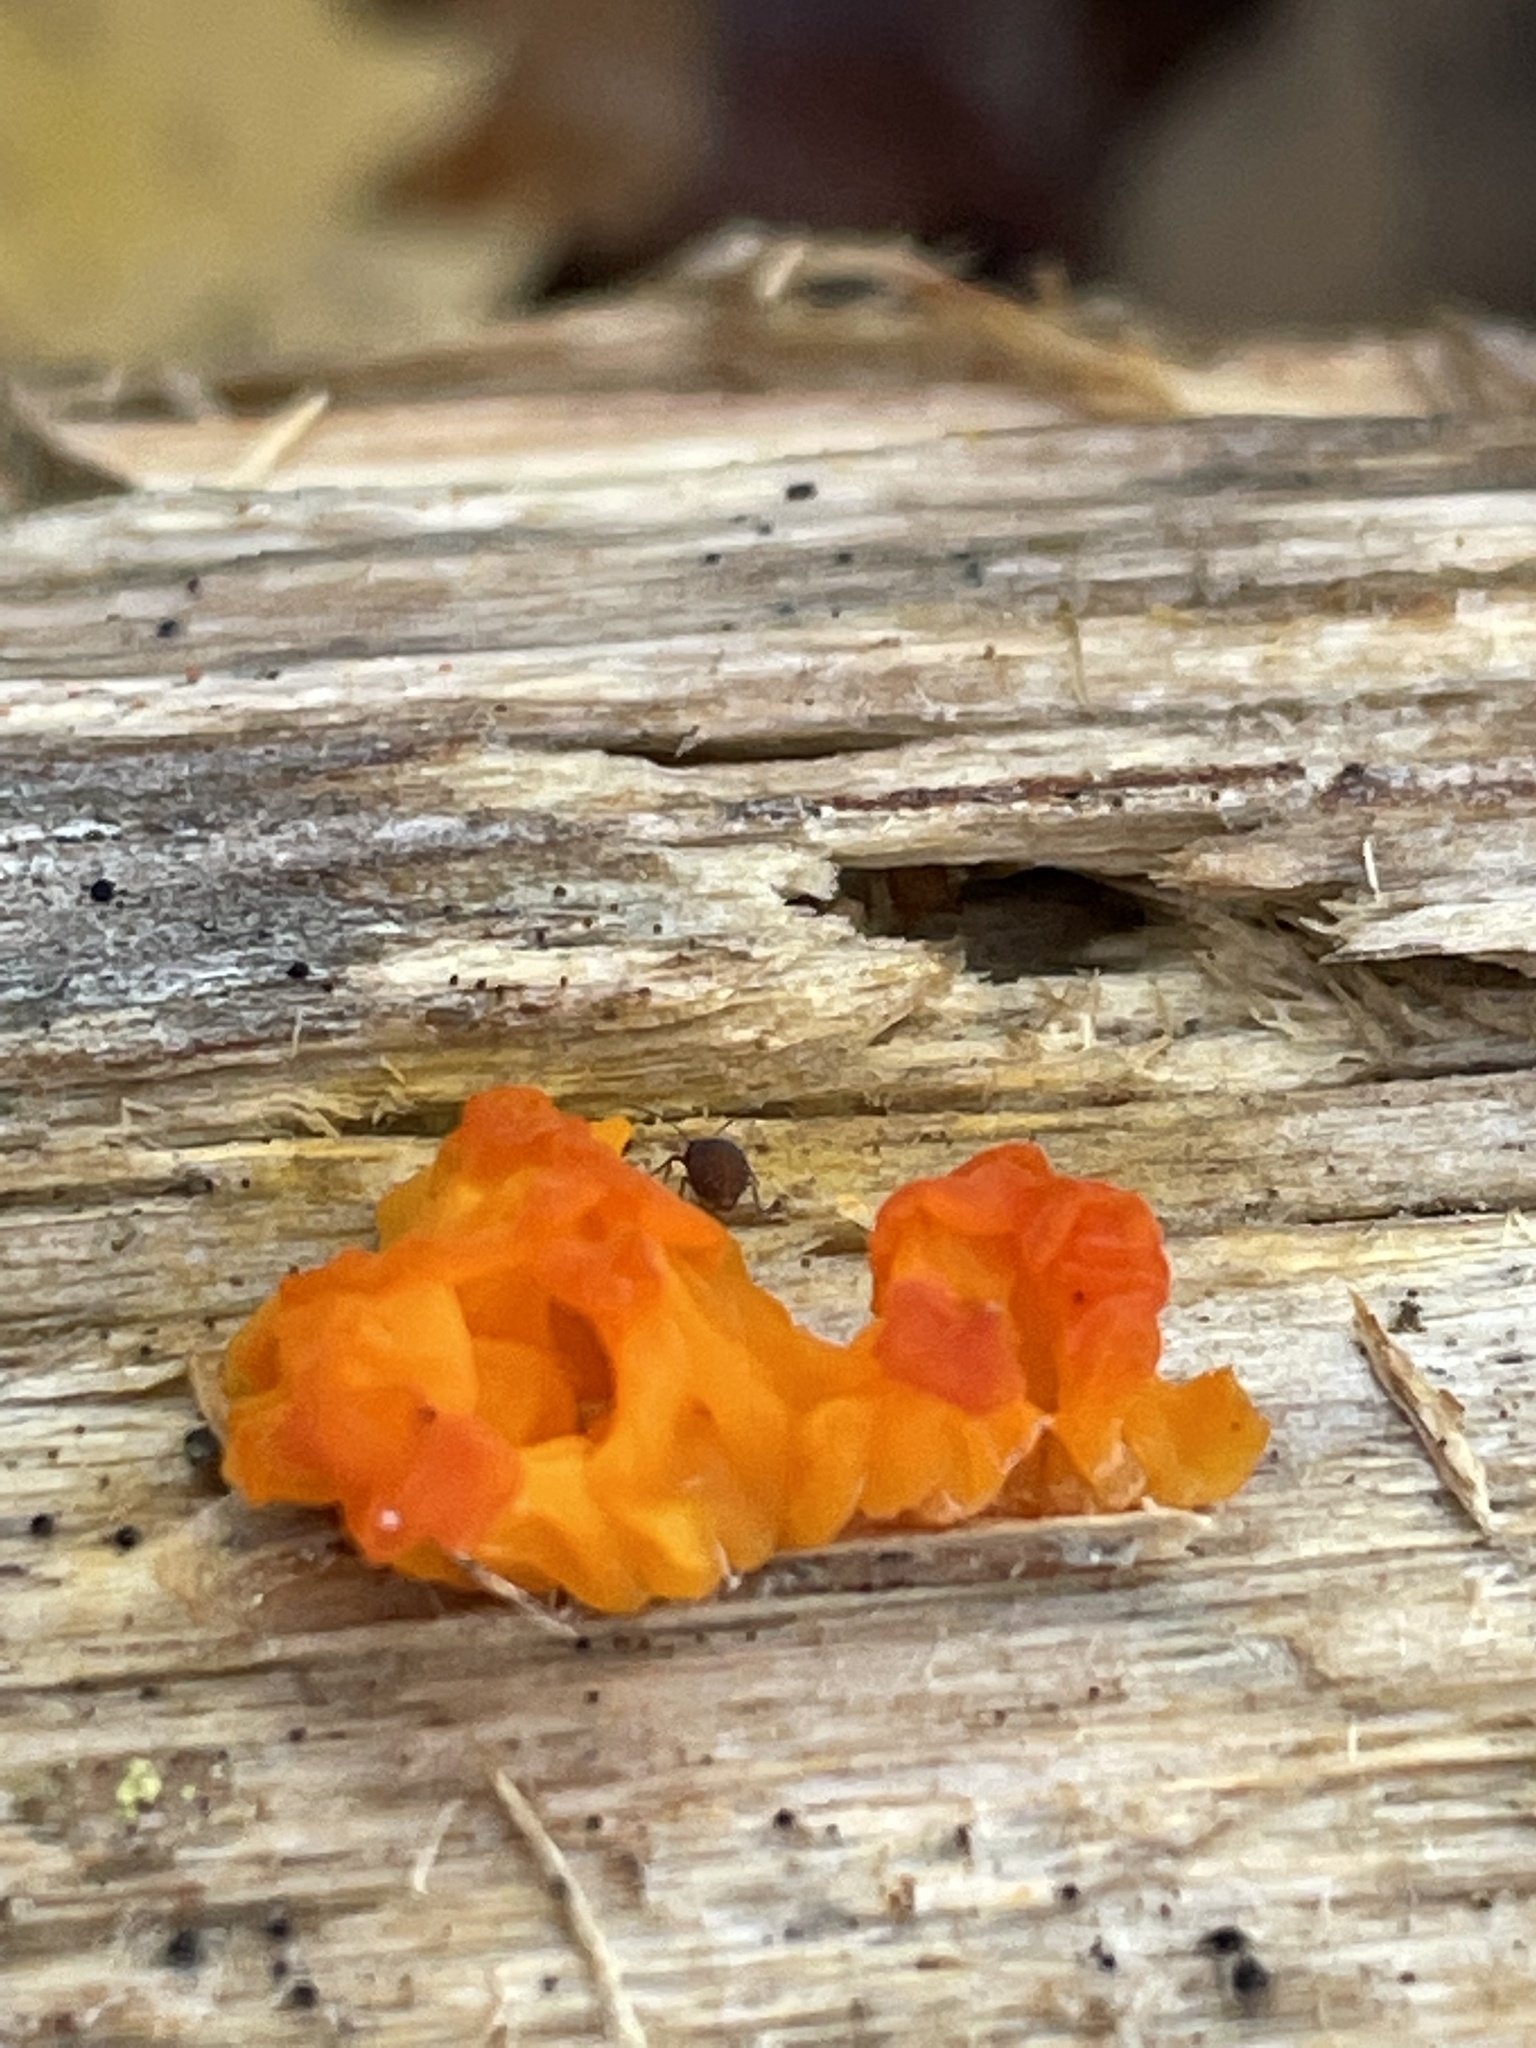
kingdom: Fungi
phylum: Basidiomycota
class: Dacrymycetes
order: Dacrymycetales
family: Dacrymycetaceae
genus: Dacrymyces
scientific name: Dacrymyces chrysospermus
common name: Orange jelly spot
